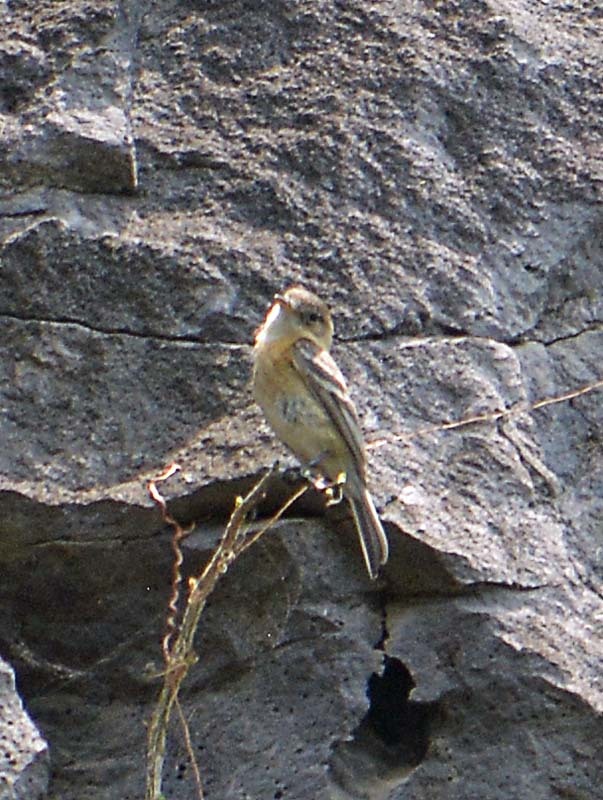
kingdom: Animalia
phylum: Chordata
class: Aves
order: Passeriformes
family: Tyrannidae
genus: Empidonax
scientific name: Empidonax fulvifrons
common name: Buff-breasted flycatcher
